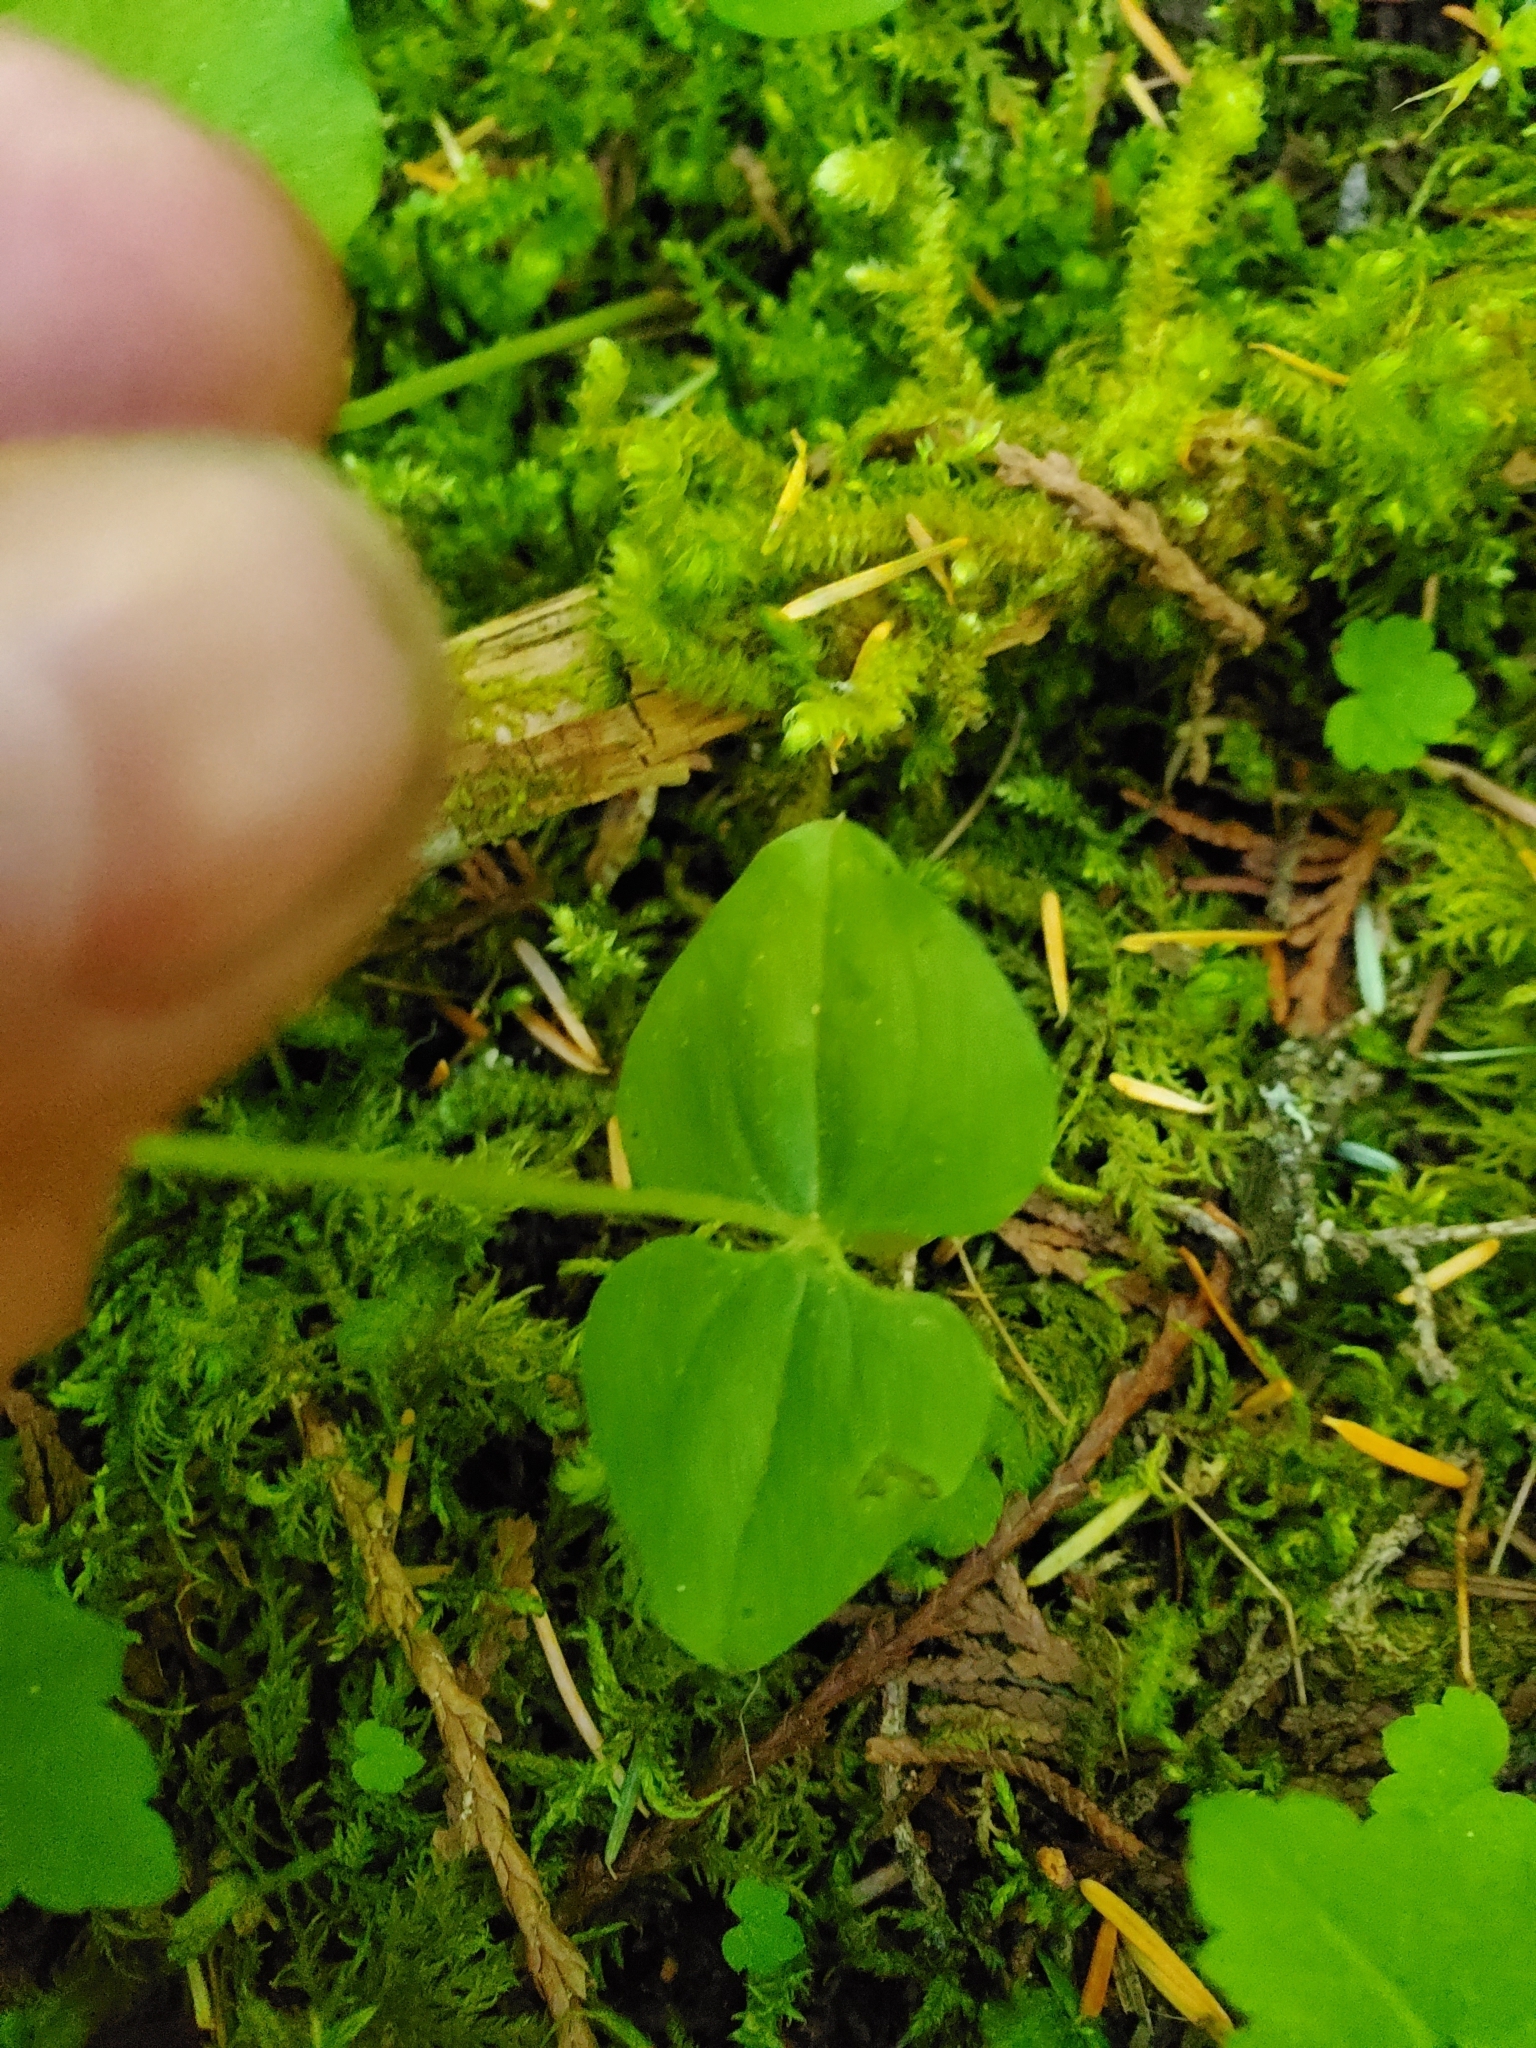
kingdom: Plantae
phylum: Tracheophyta
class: Liliopsida
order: Asparagales
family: Orchidaceae
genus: Neottia
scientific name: Neottia cordata
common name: Lesser twayblade
